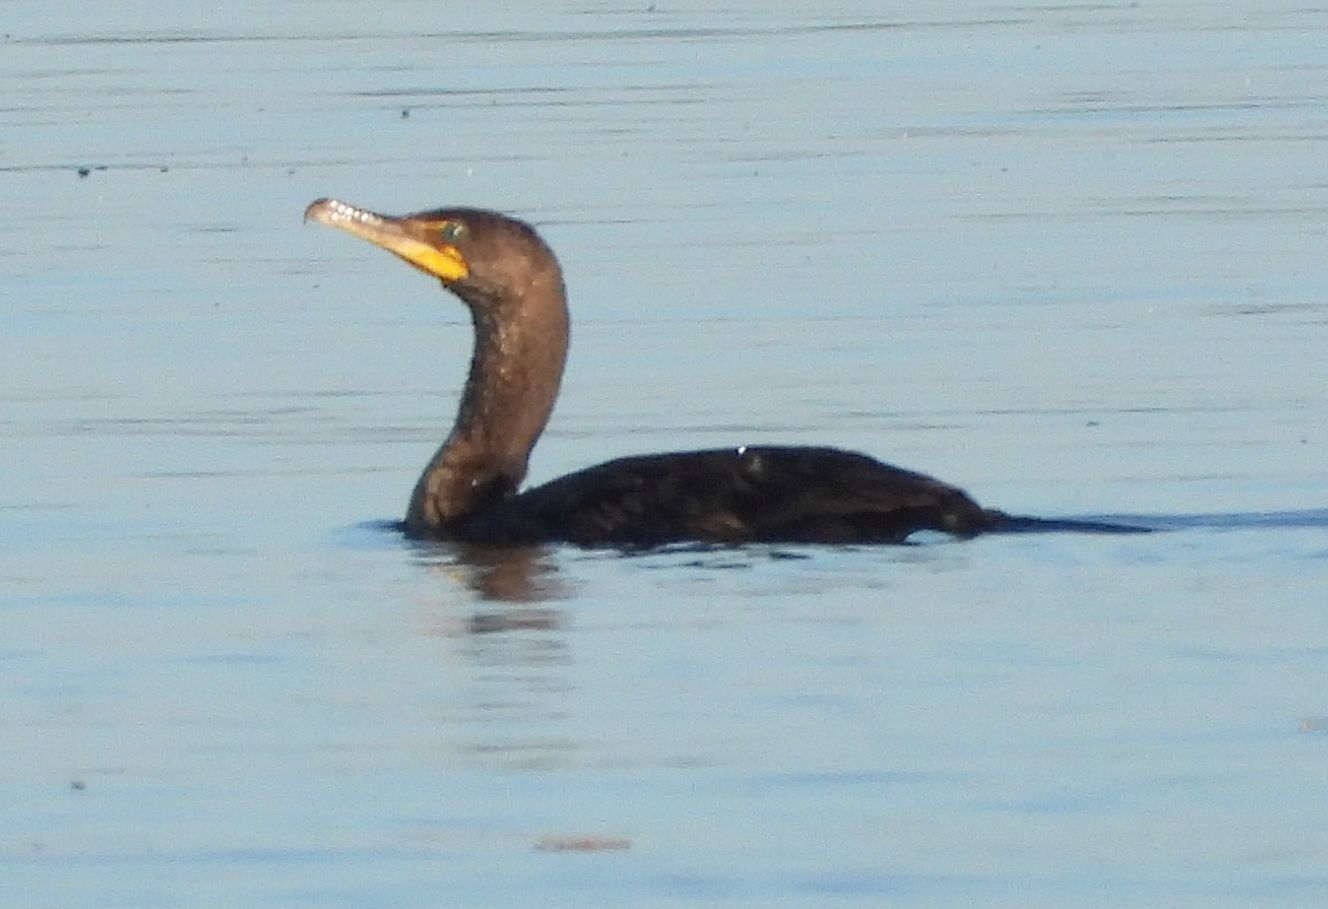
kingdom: Animalia
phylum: Chordata
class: Aves
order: Suliformes
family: Phalacrocoracidae
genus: Phalacrocorax
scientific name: Phalacrocorax auritus
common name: Double-crested cormorant
